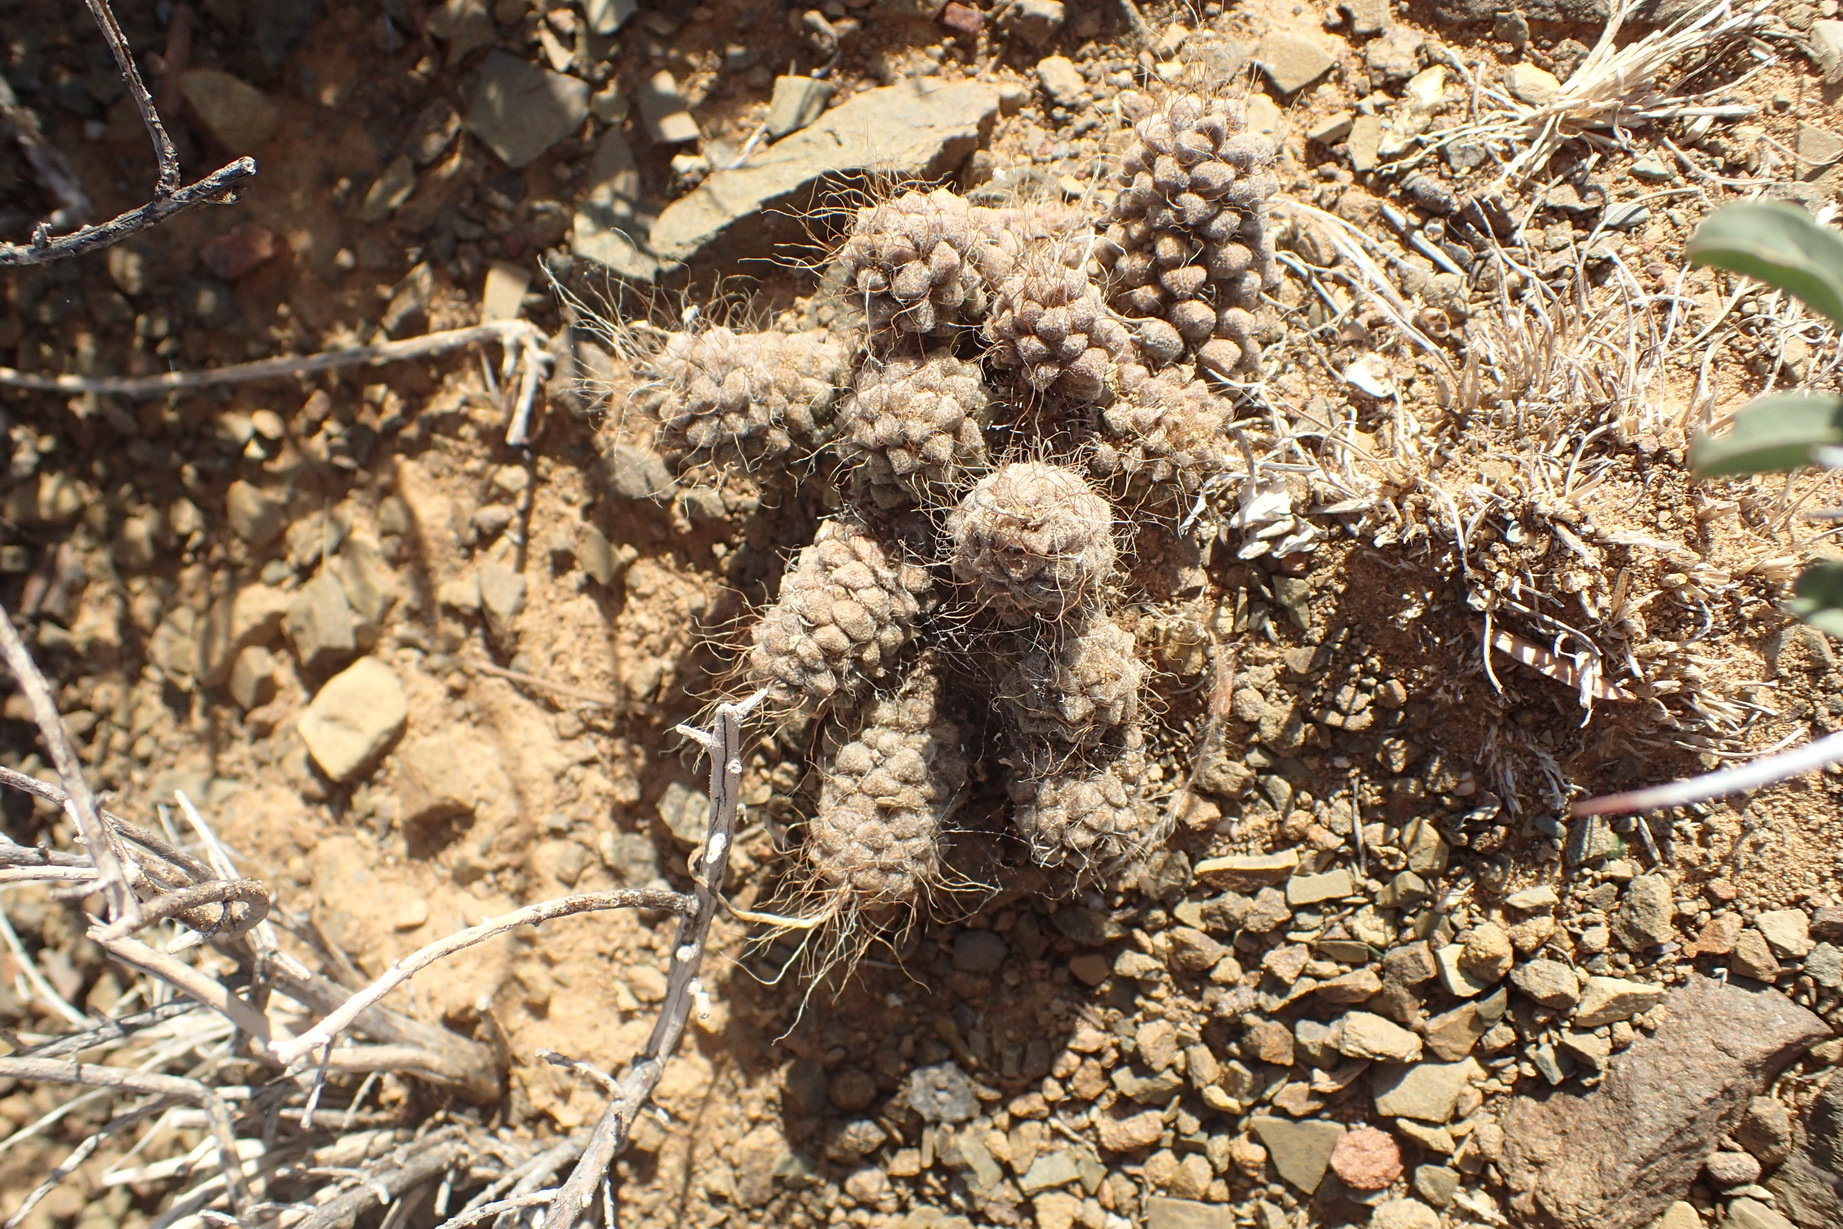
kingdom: Plantae
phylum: Tracheophyta
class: Magnoliopsida
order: Caryophyllales
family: Anacampserotaceae
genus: Anacampseros
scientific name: Anacampseros albidiflora
